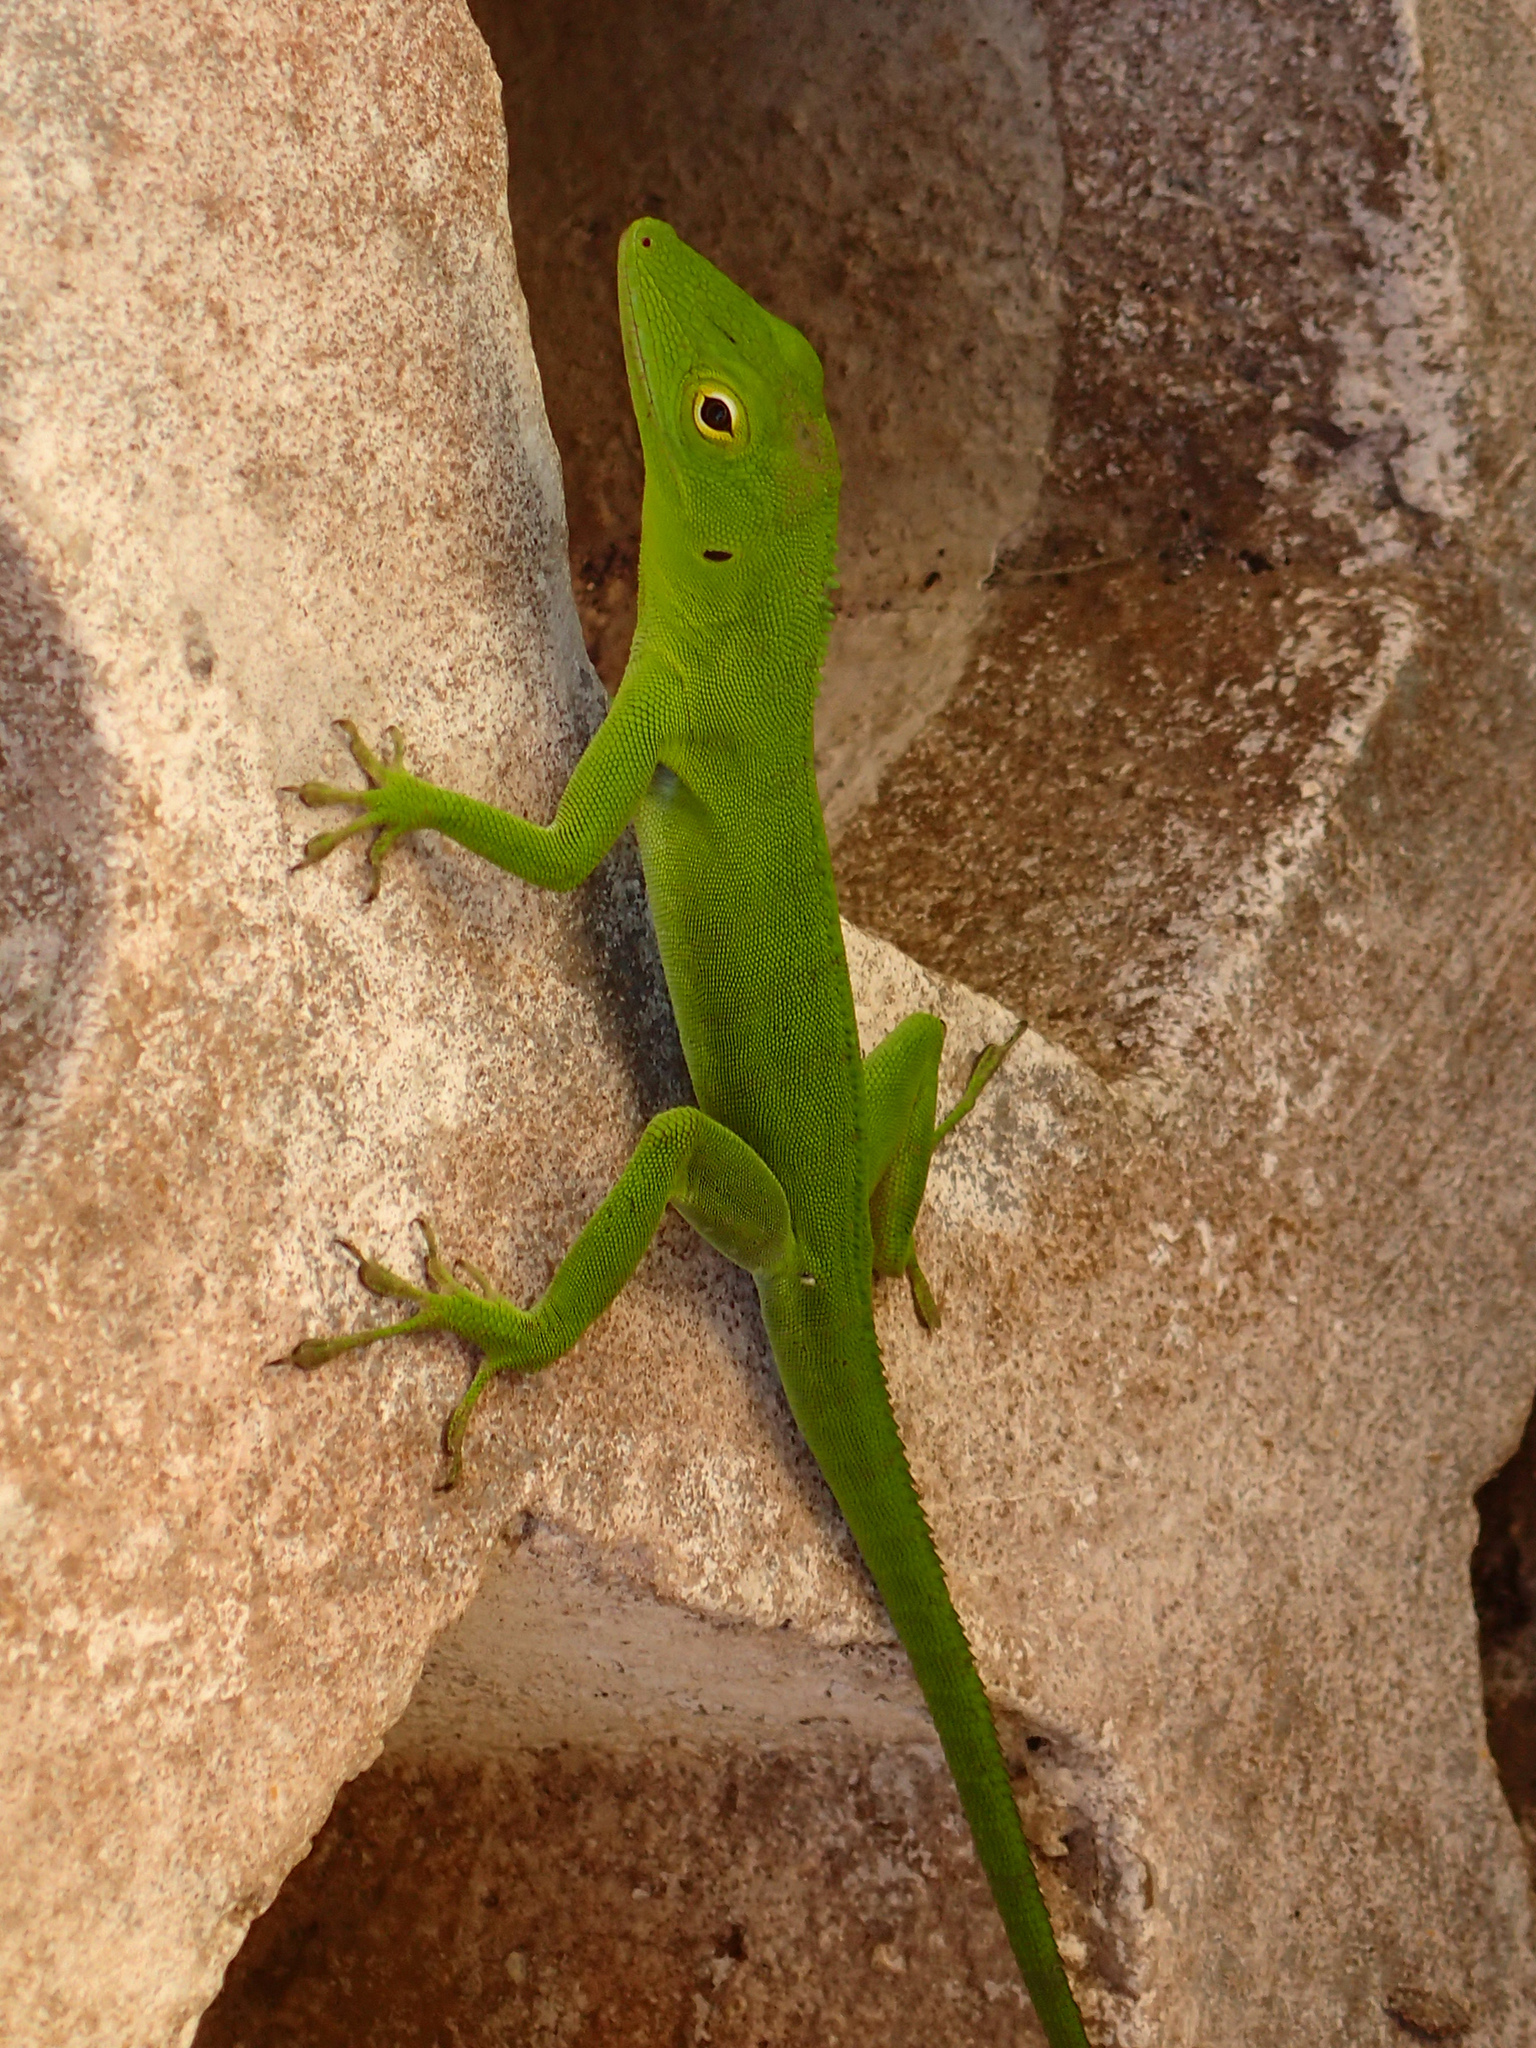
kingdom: Animalia
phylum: Chordata
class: Squamata
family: Dactyloidae
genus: Anolis
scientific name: Anolis garmani
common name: Jamaican giant anole
